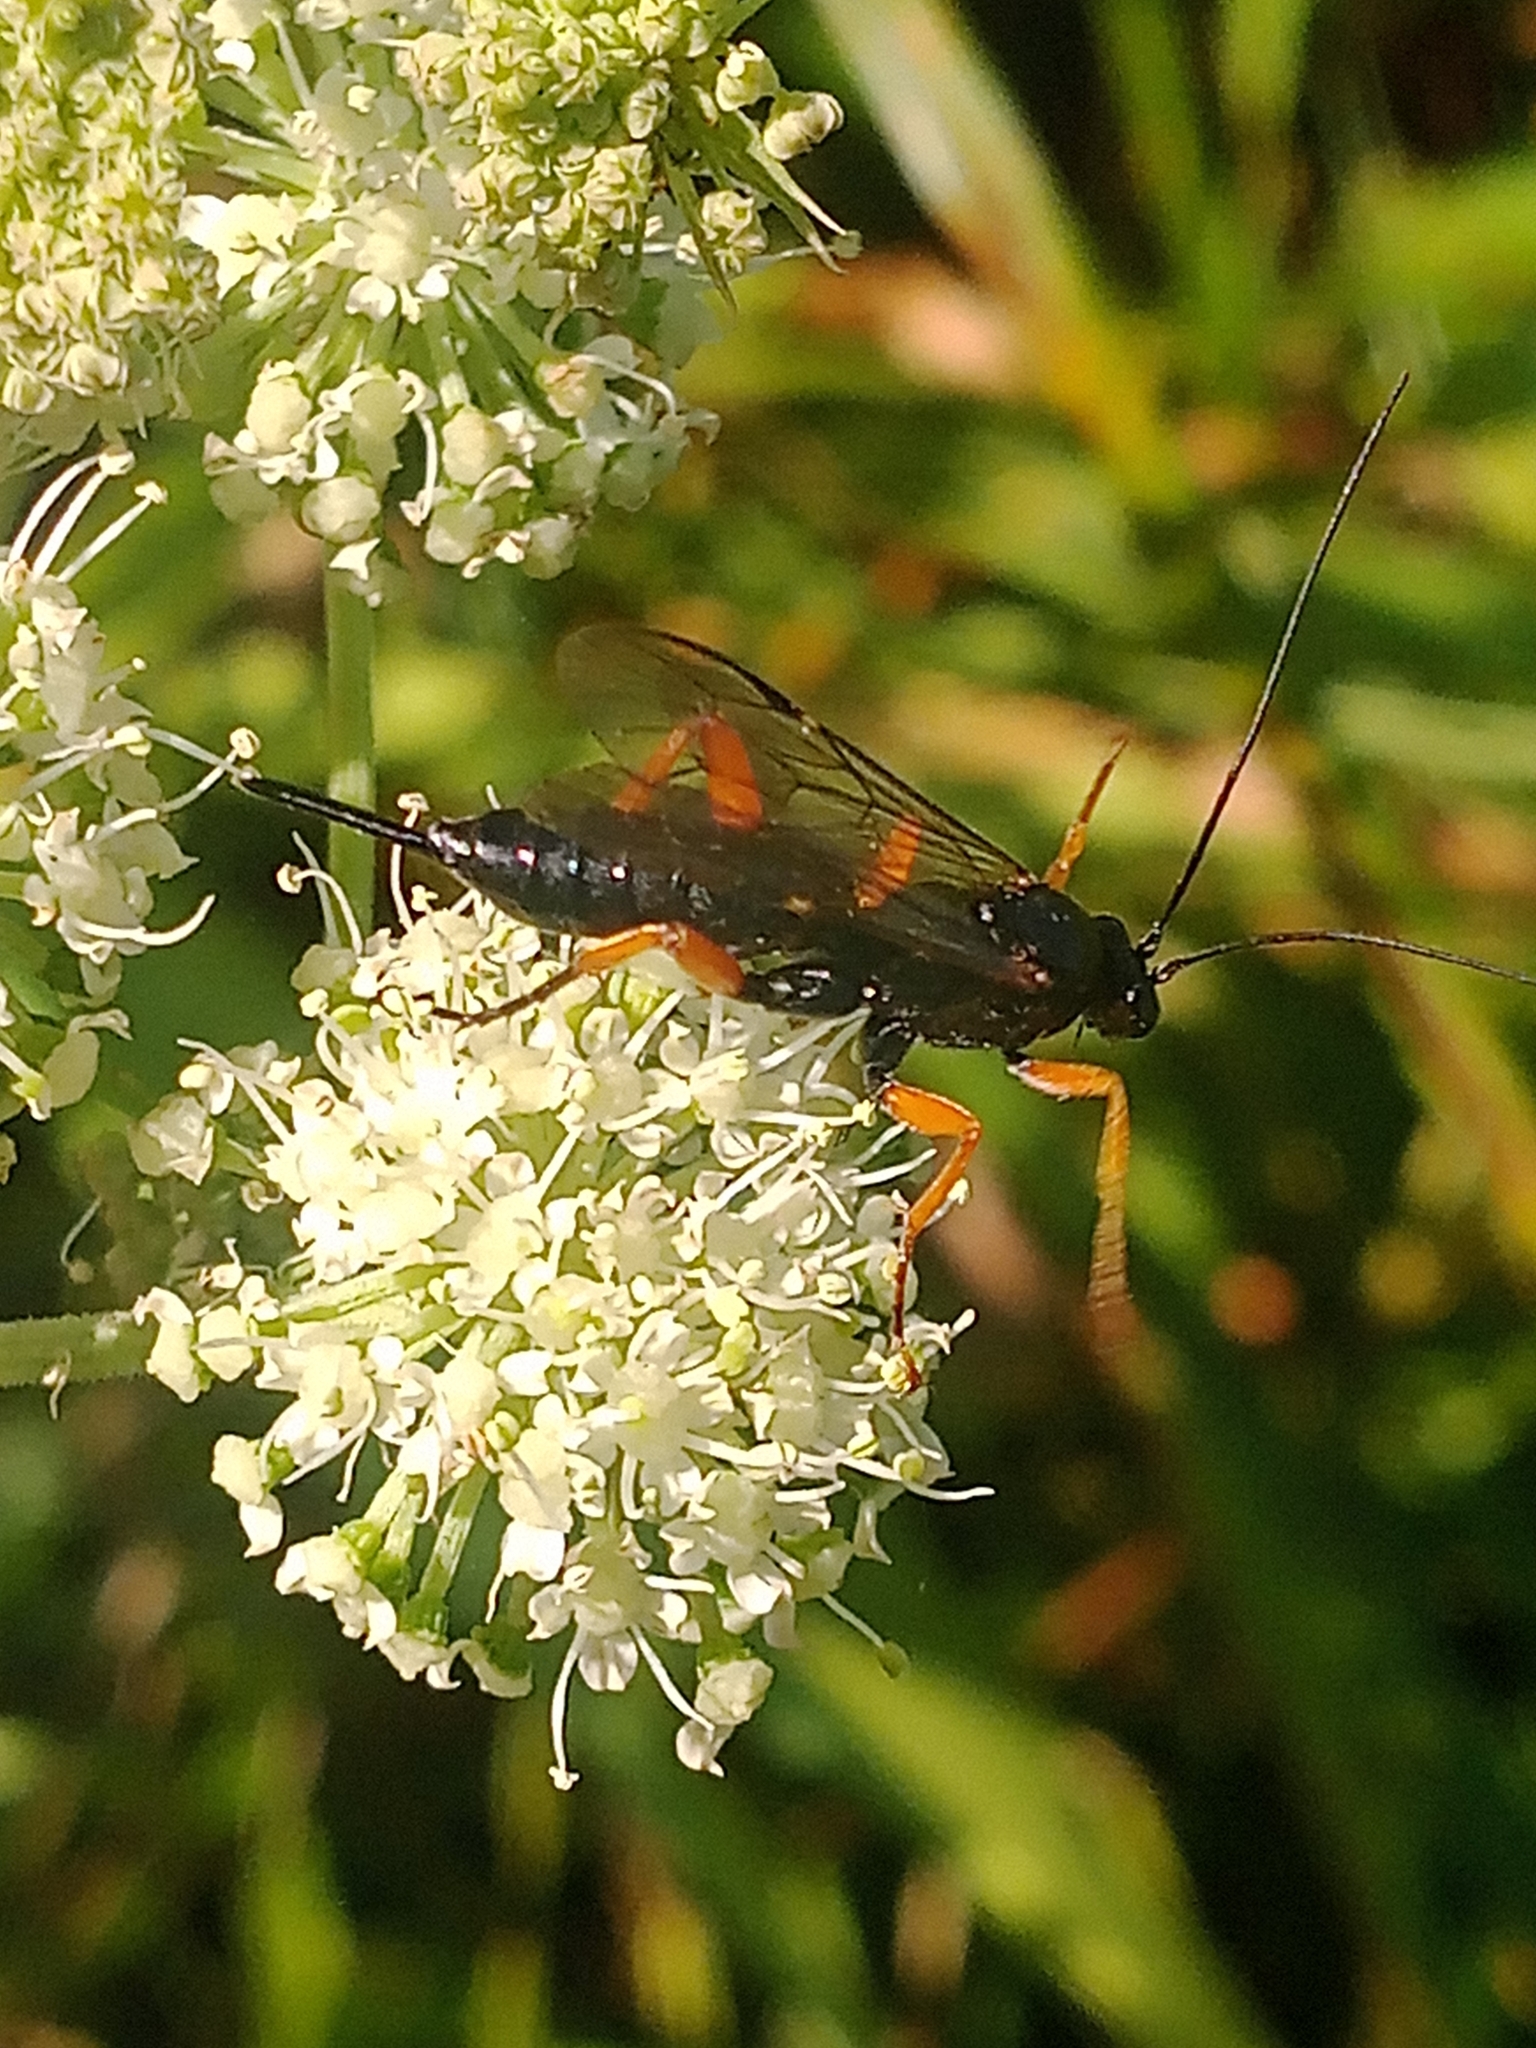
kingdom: Animalia
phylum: Arthropoda
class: Insecta
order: Hymenoptera
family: Ichneumonidae
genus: Pimpla
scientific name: Pimpla rufipes
